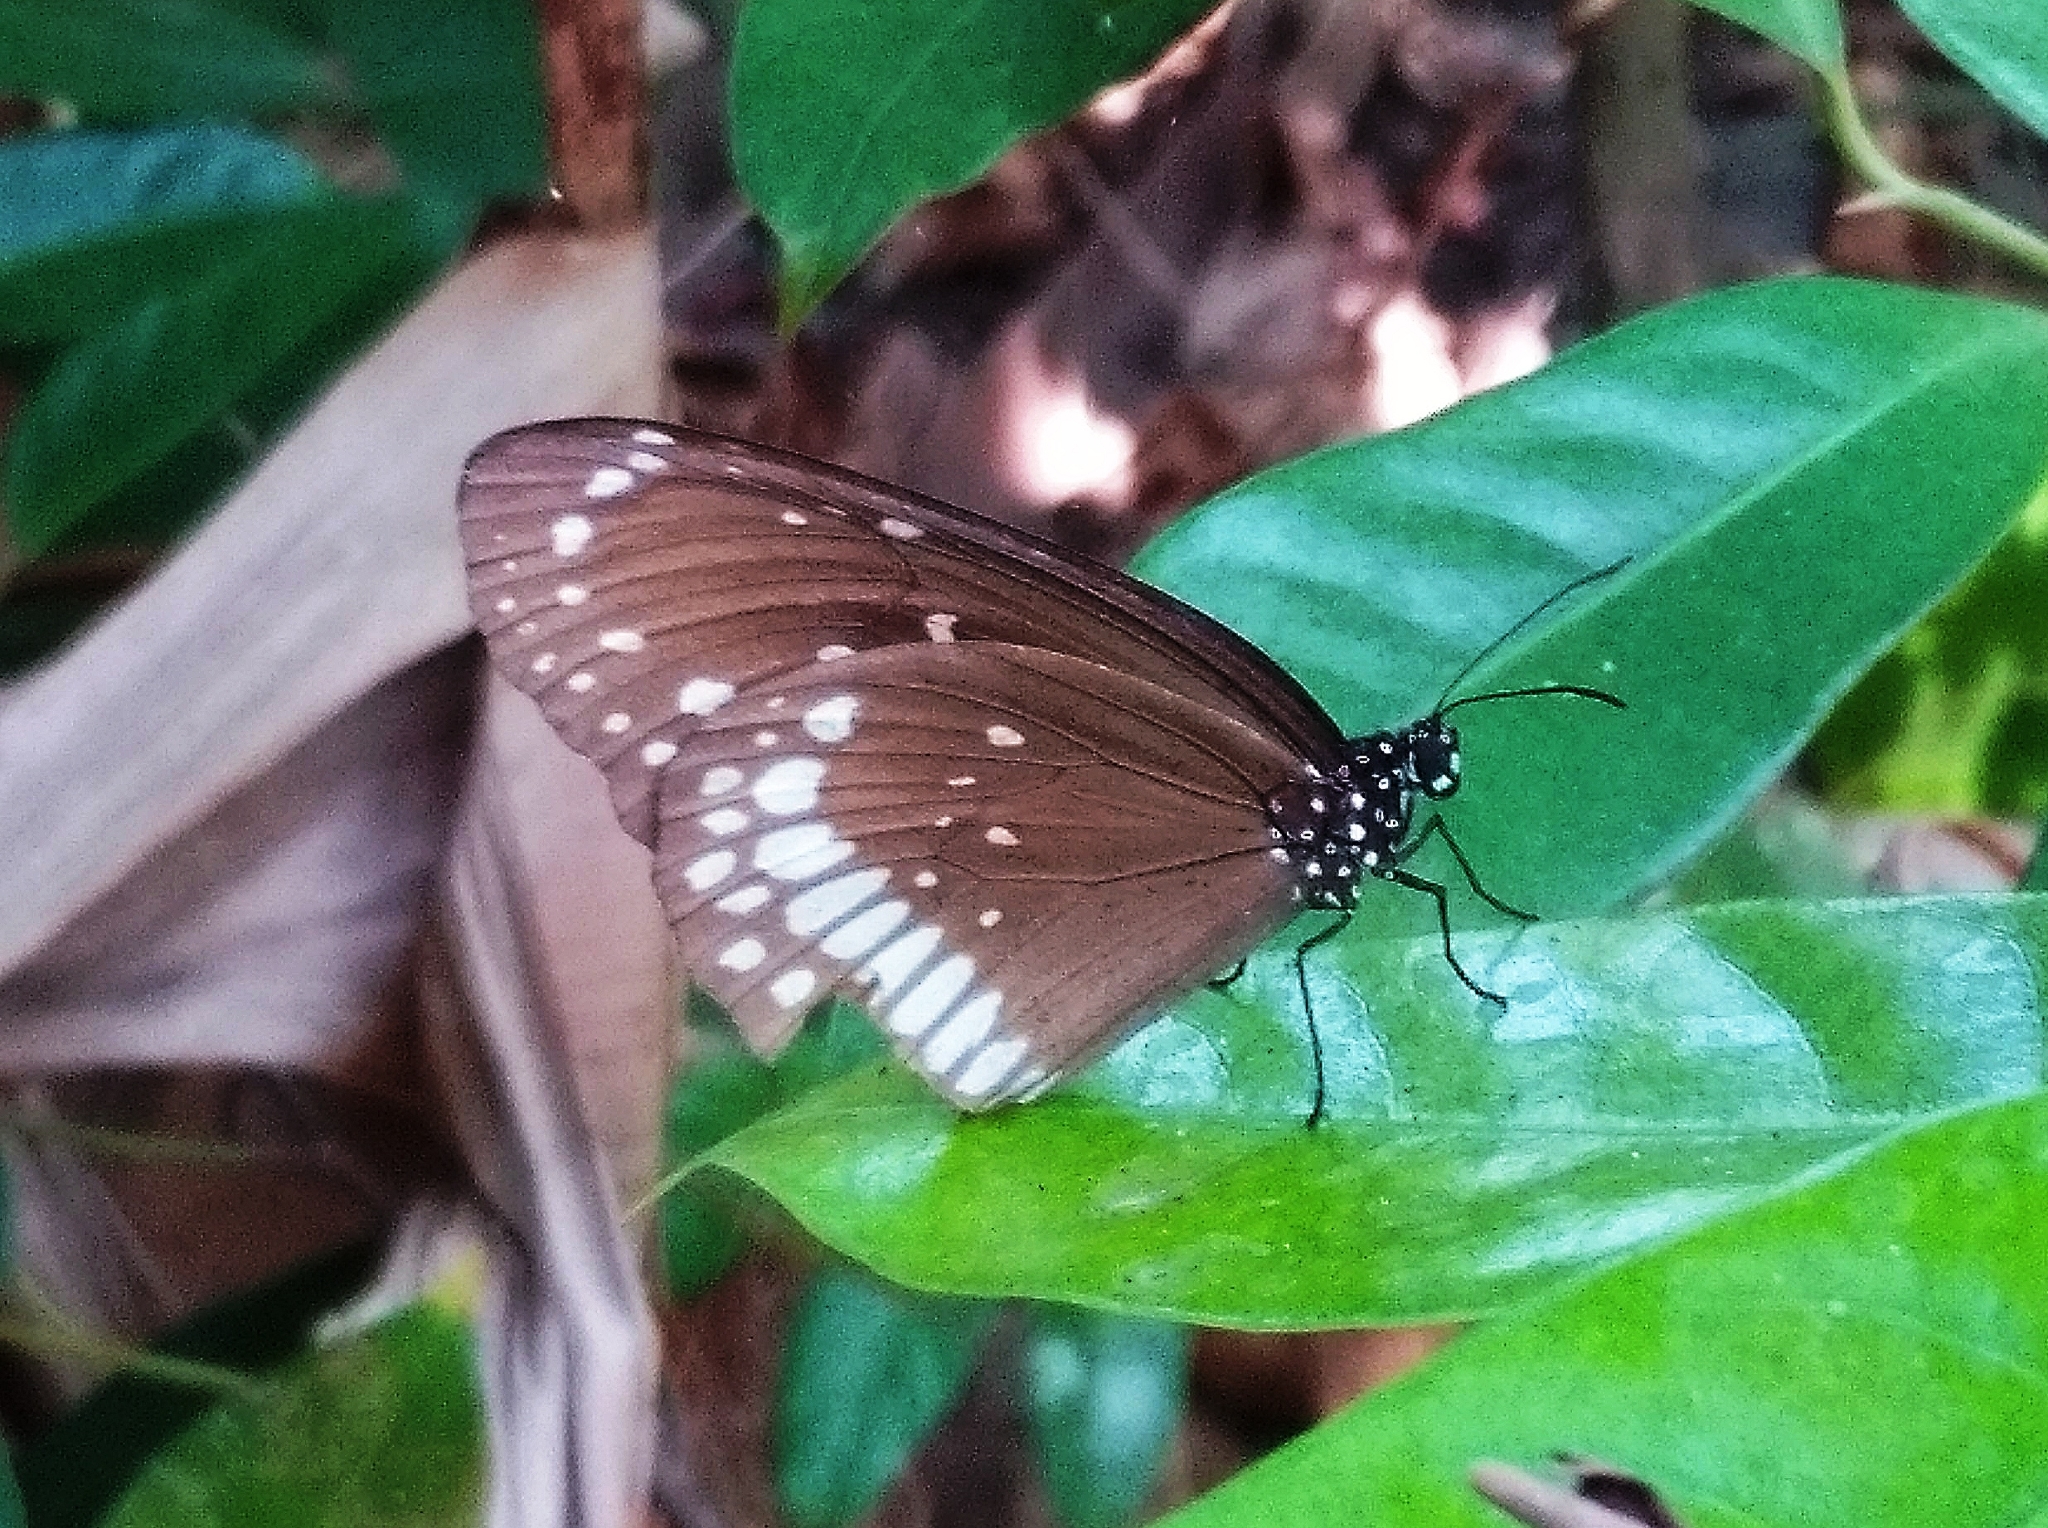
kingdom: Animalia
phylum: Arthropoda
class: Insecta
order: Lepidoptera
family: Nymphalidae
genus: Euploea
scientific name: Euploea core
